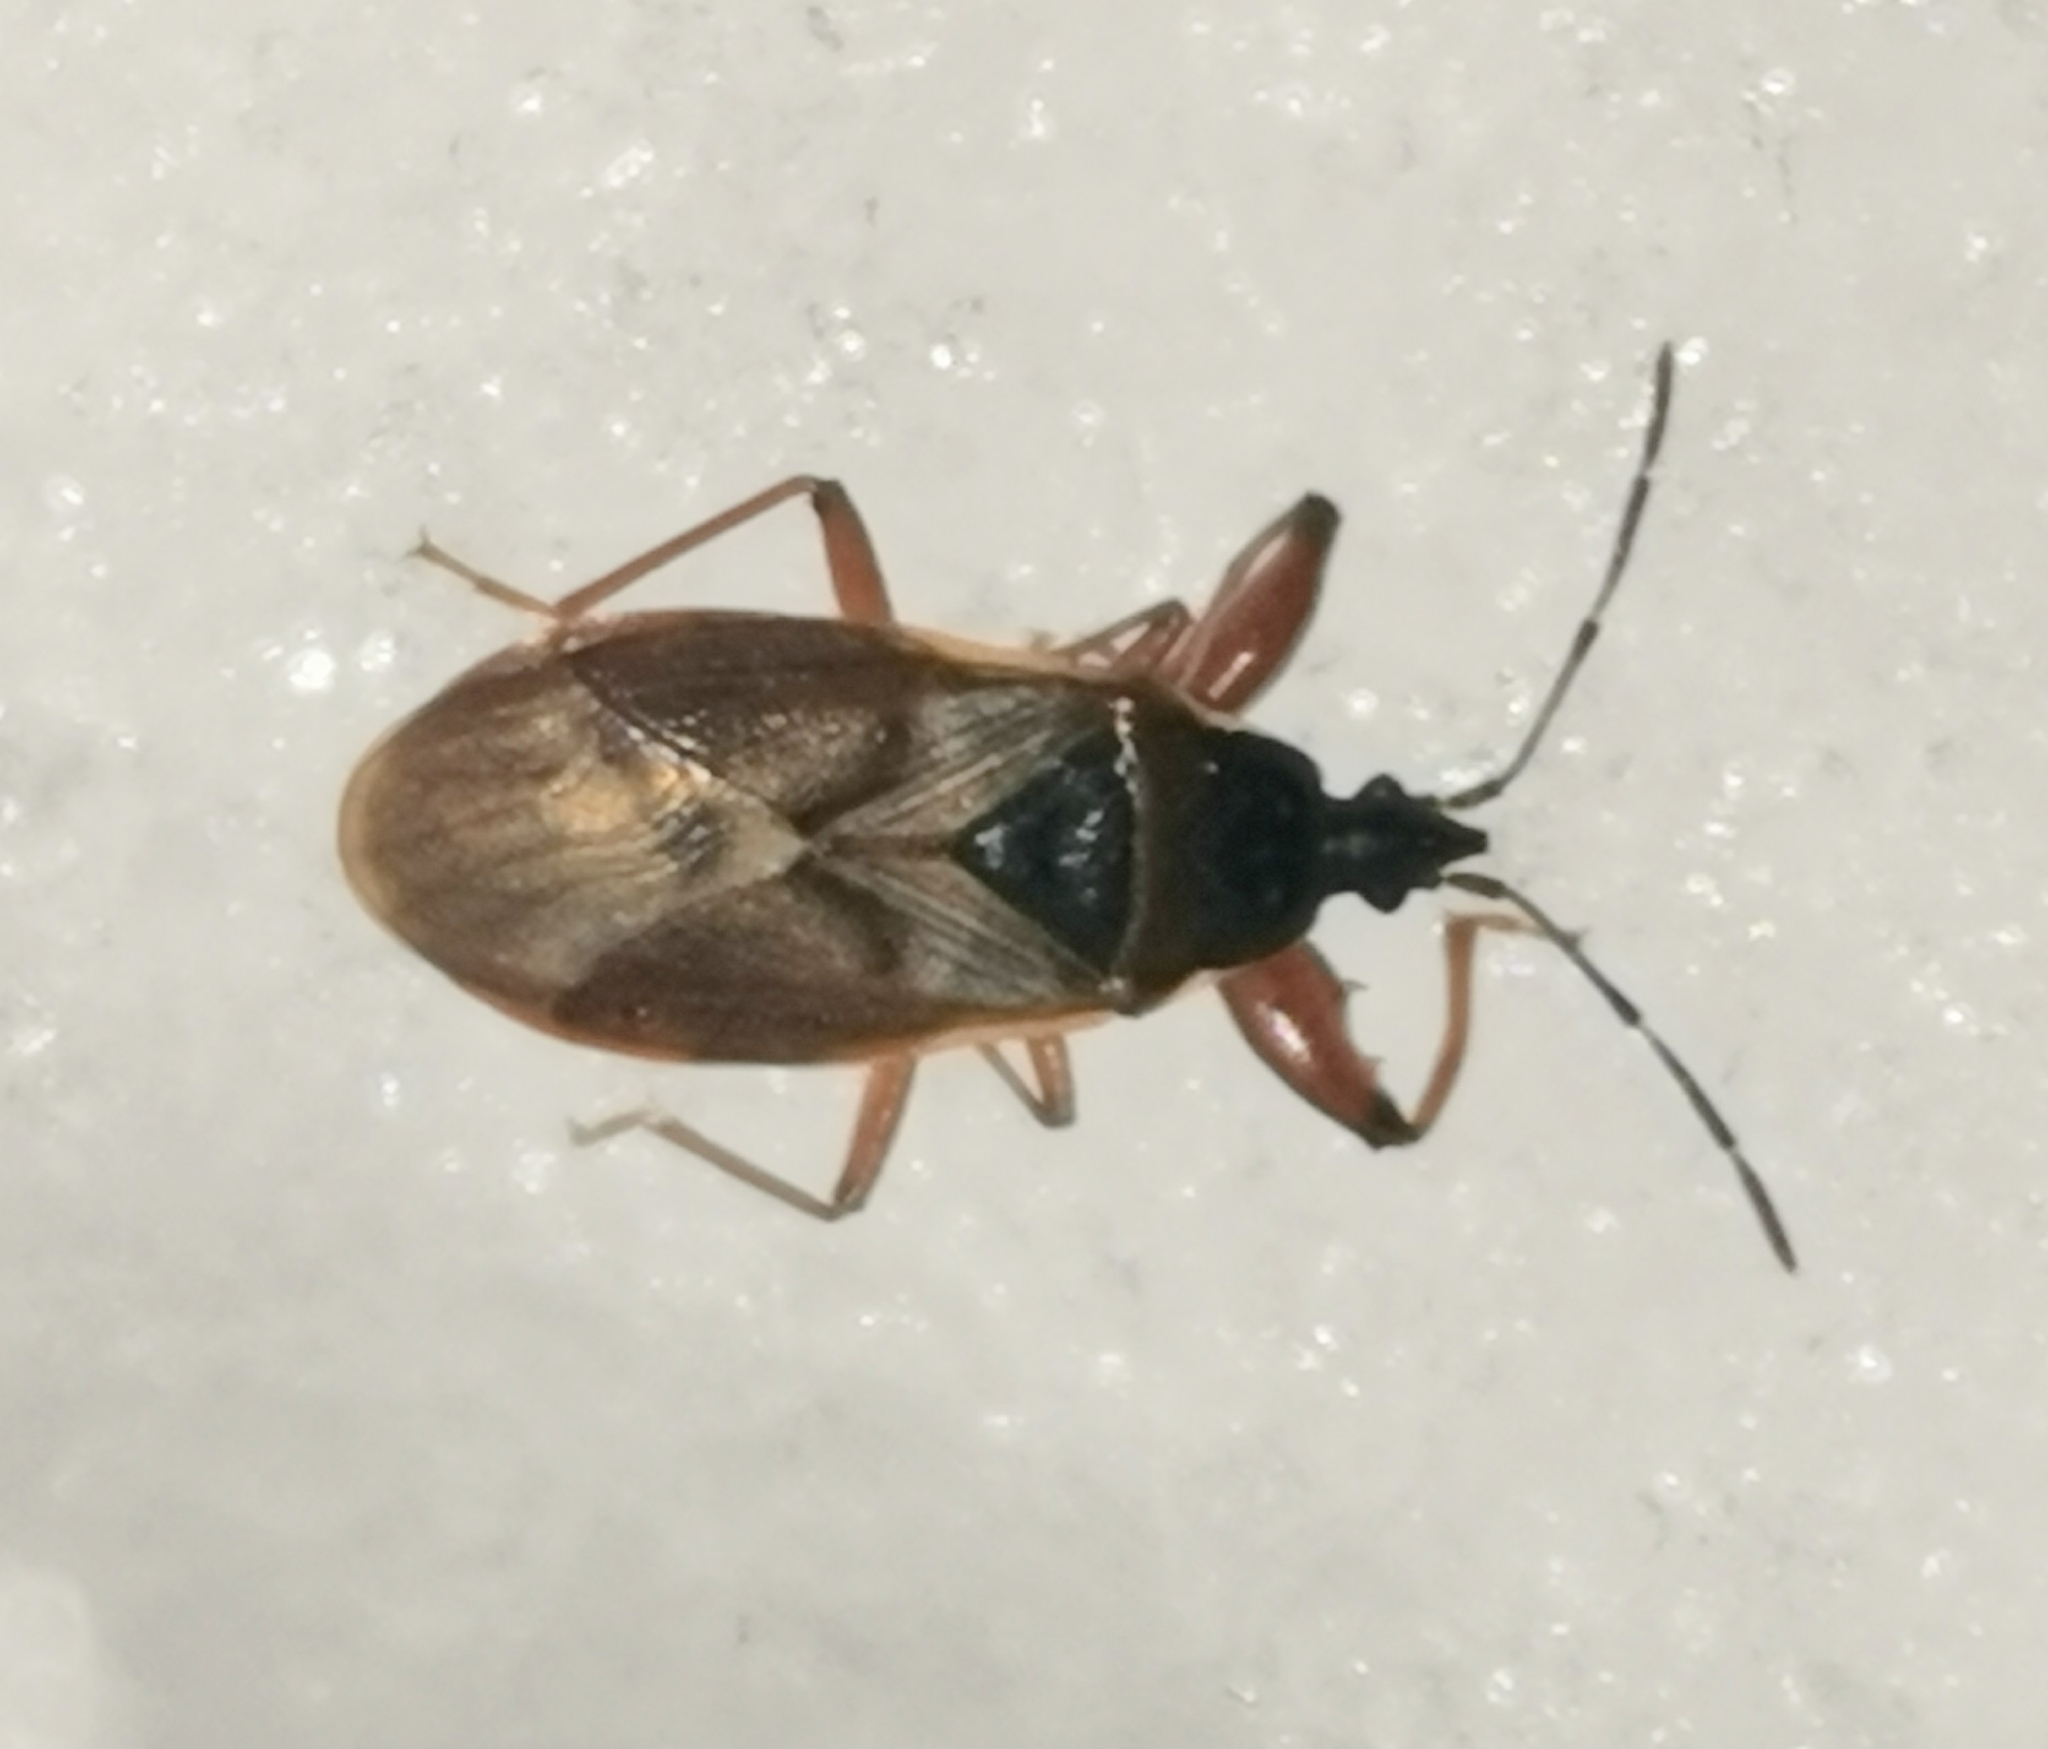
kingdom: Animalia
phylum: Arthropoda
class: Insecta
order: Hemiptera
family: Rhyparochromidae
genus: Gastrodes
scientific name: Gastrodes abietum
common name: Spruce cone bug
